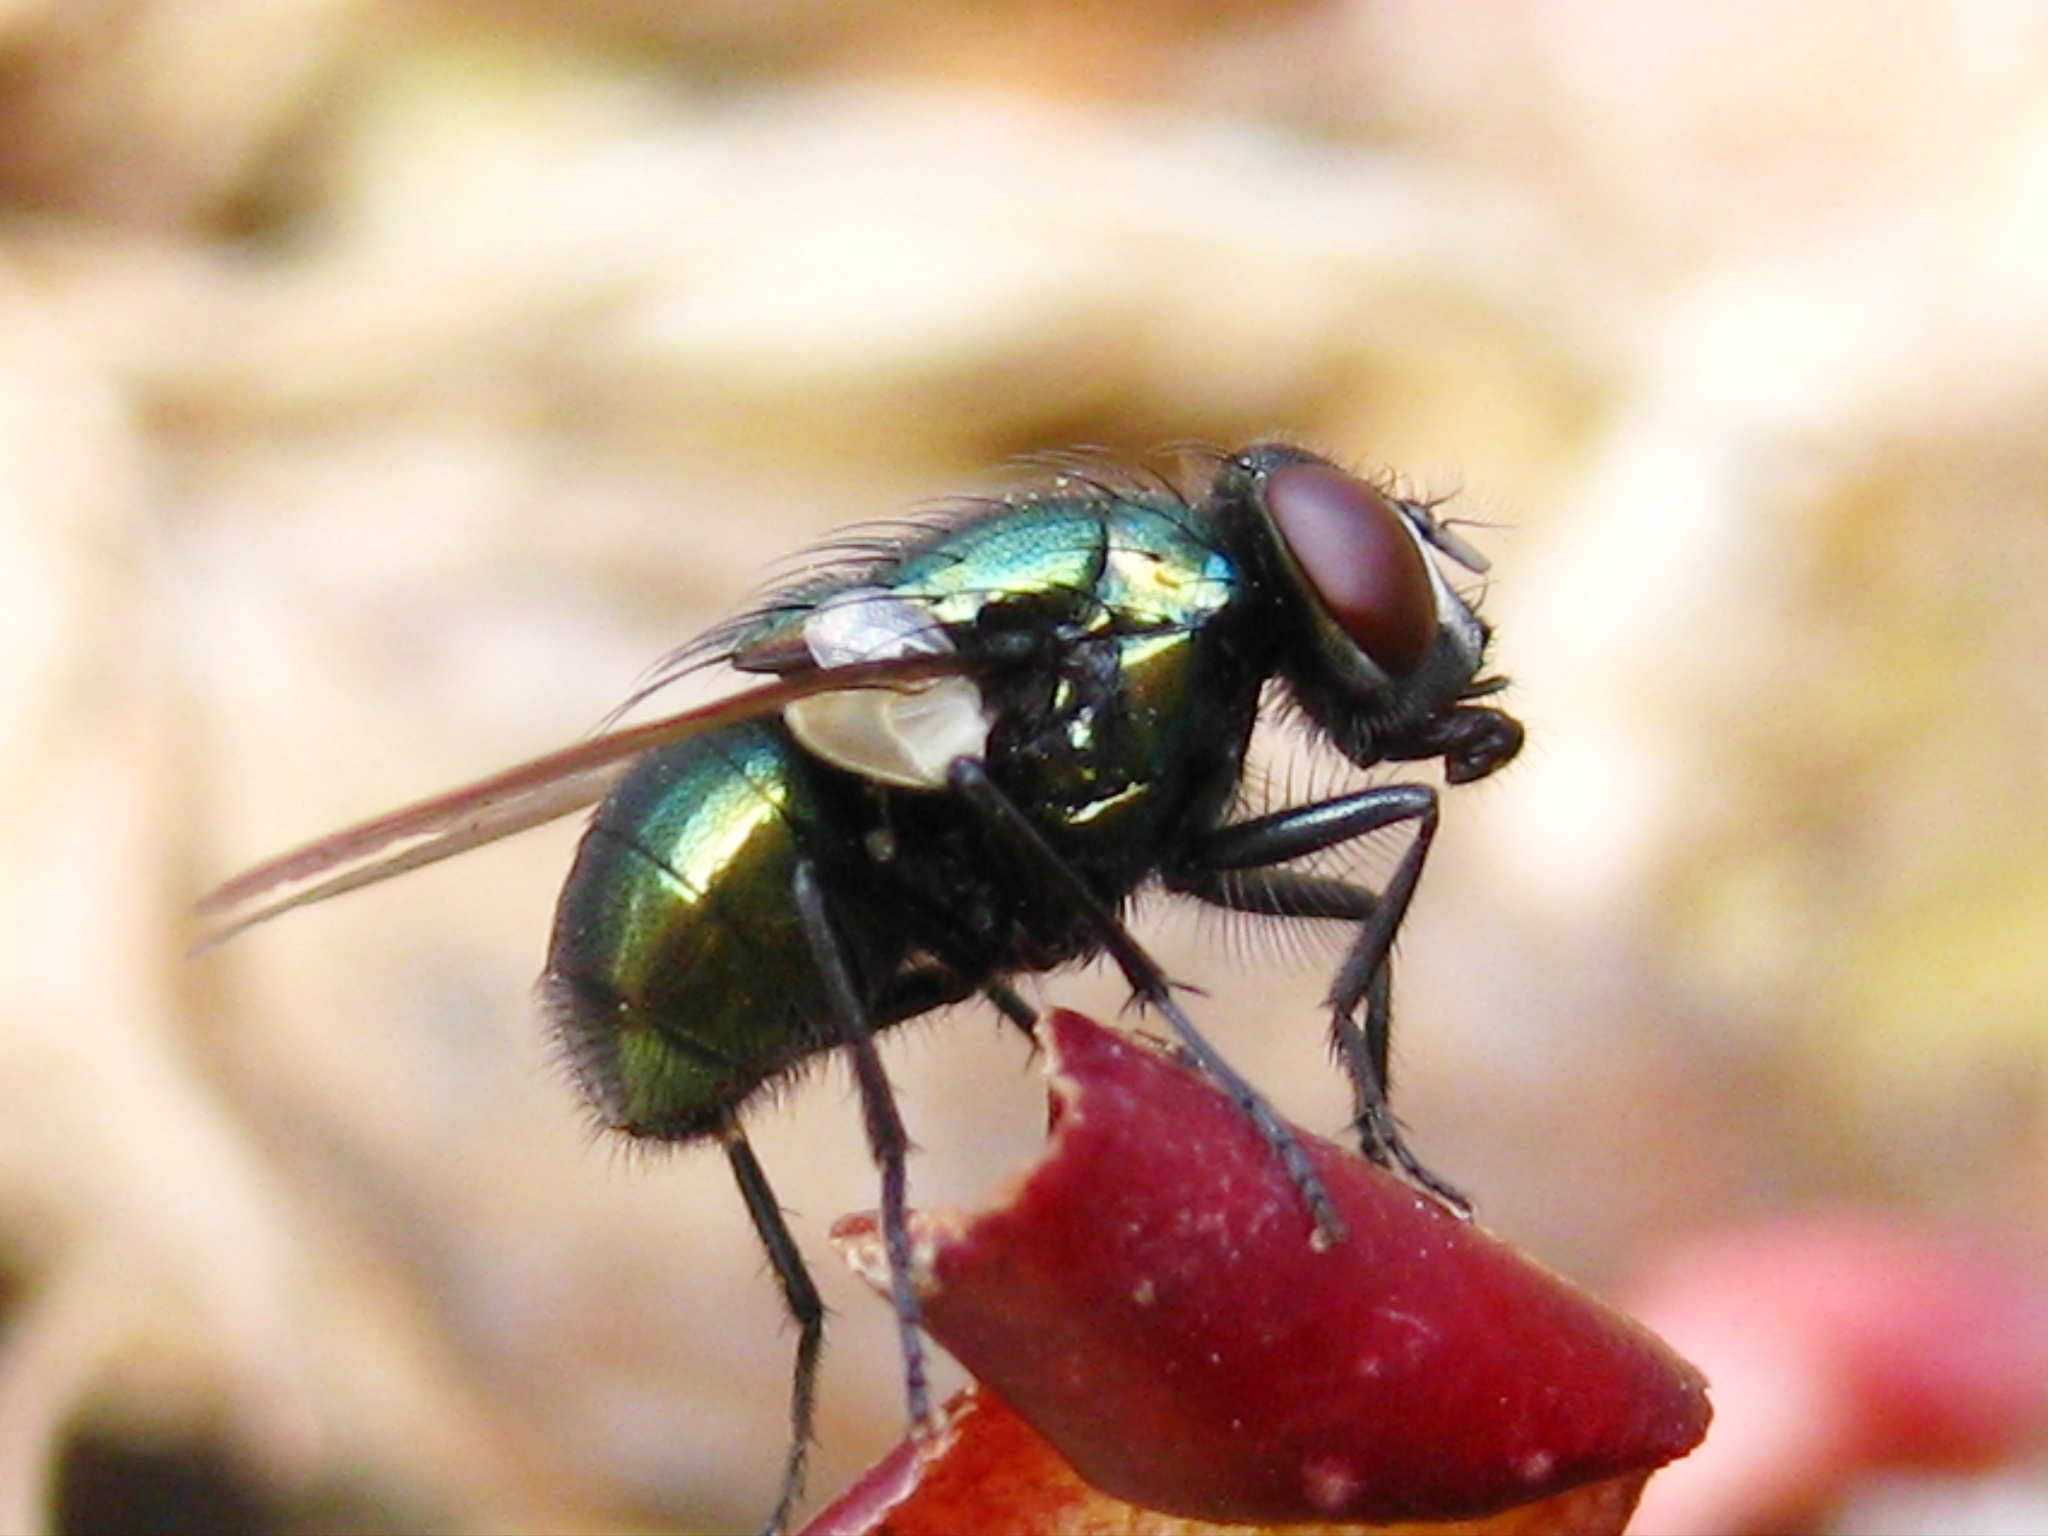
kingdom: Animalia
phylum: Arthropoda
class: Insecta
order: Diptera
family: Muscidae
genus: Neomyia
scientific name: Neomyia cornicina
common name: House fly
